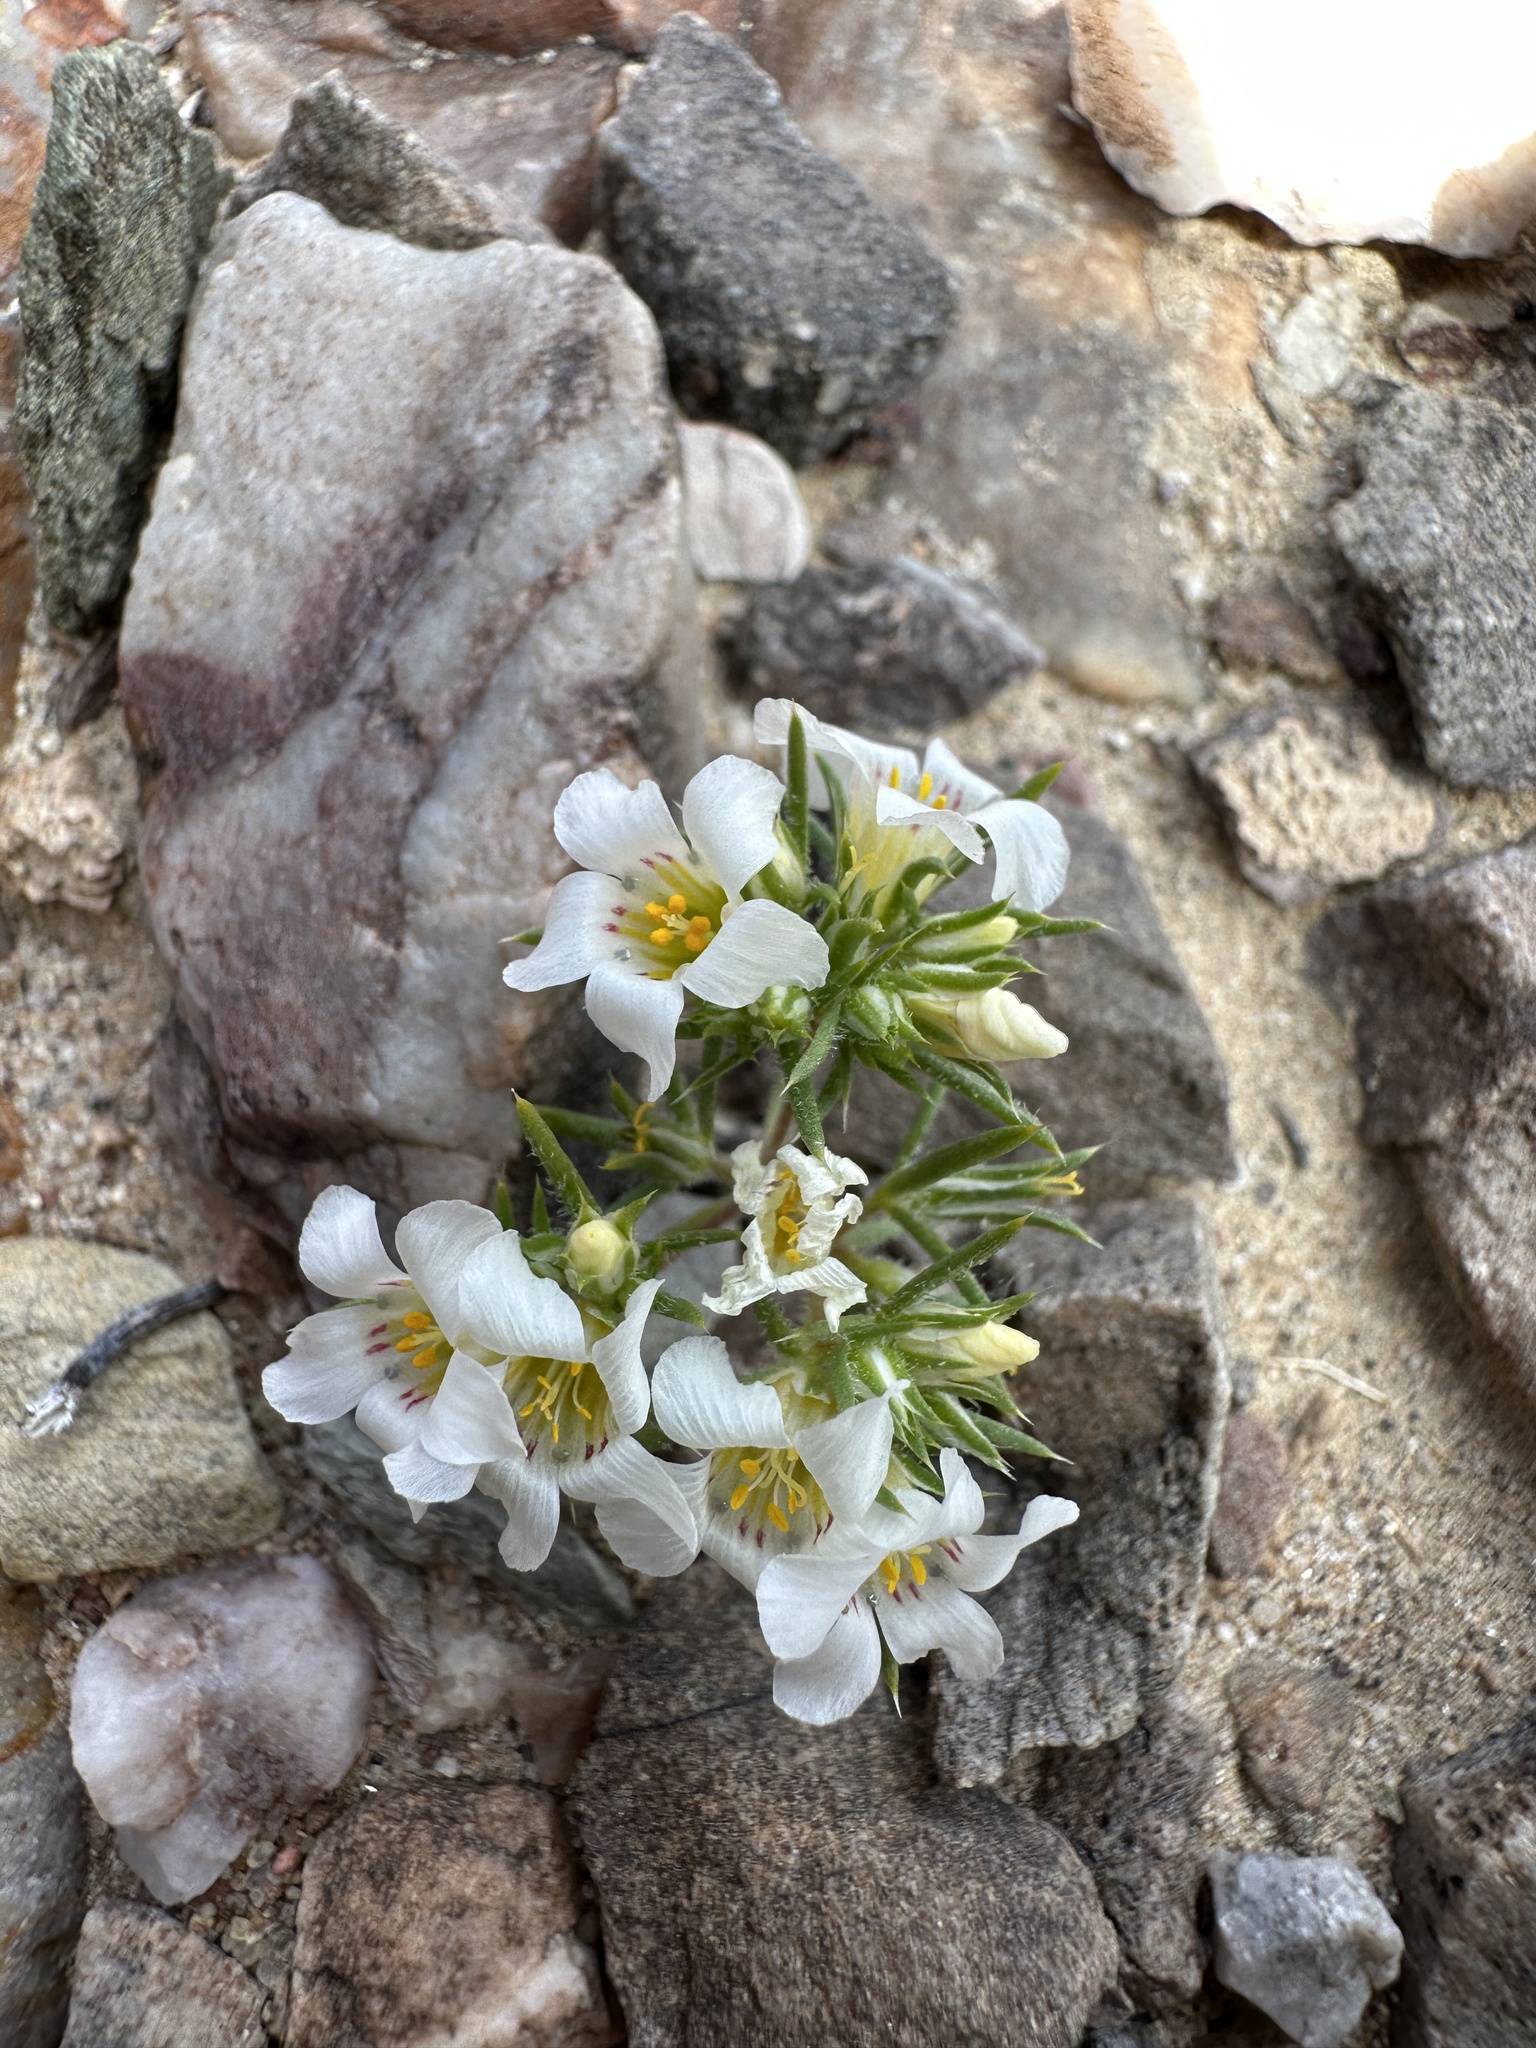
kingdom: Plantae
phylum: Tracheophyta
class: Magnoliopsida
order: Ericales
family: Polemoniaceae
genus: Linanthus
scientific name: Linanthus demissus
